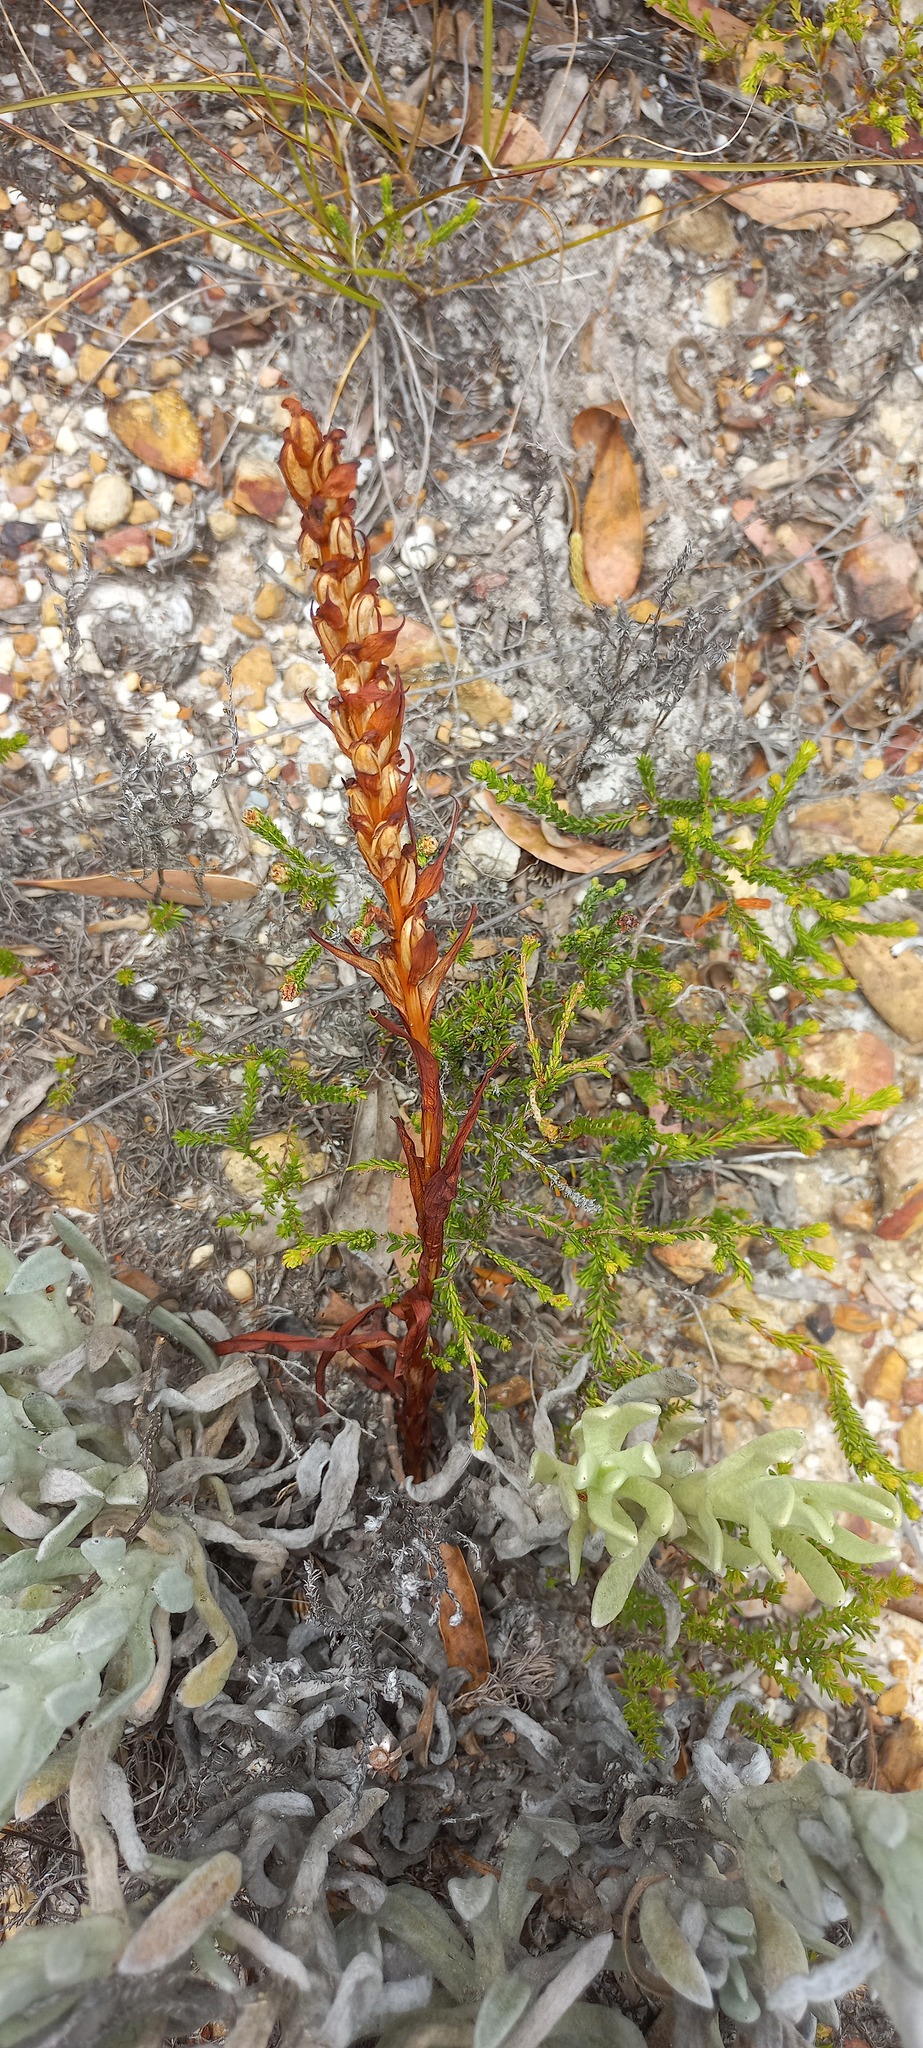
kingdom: Plantae
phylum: Tracheophyta
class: Liliopsida
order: Asparagales
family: Orchidaceae
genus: Disa
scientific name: Disa bracteata
